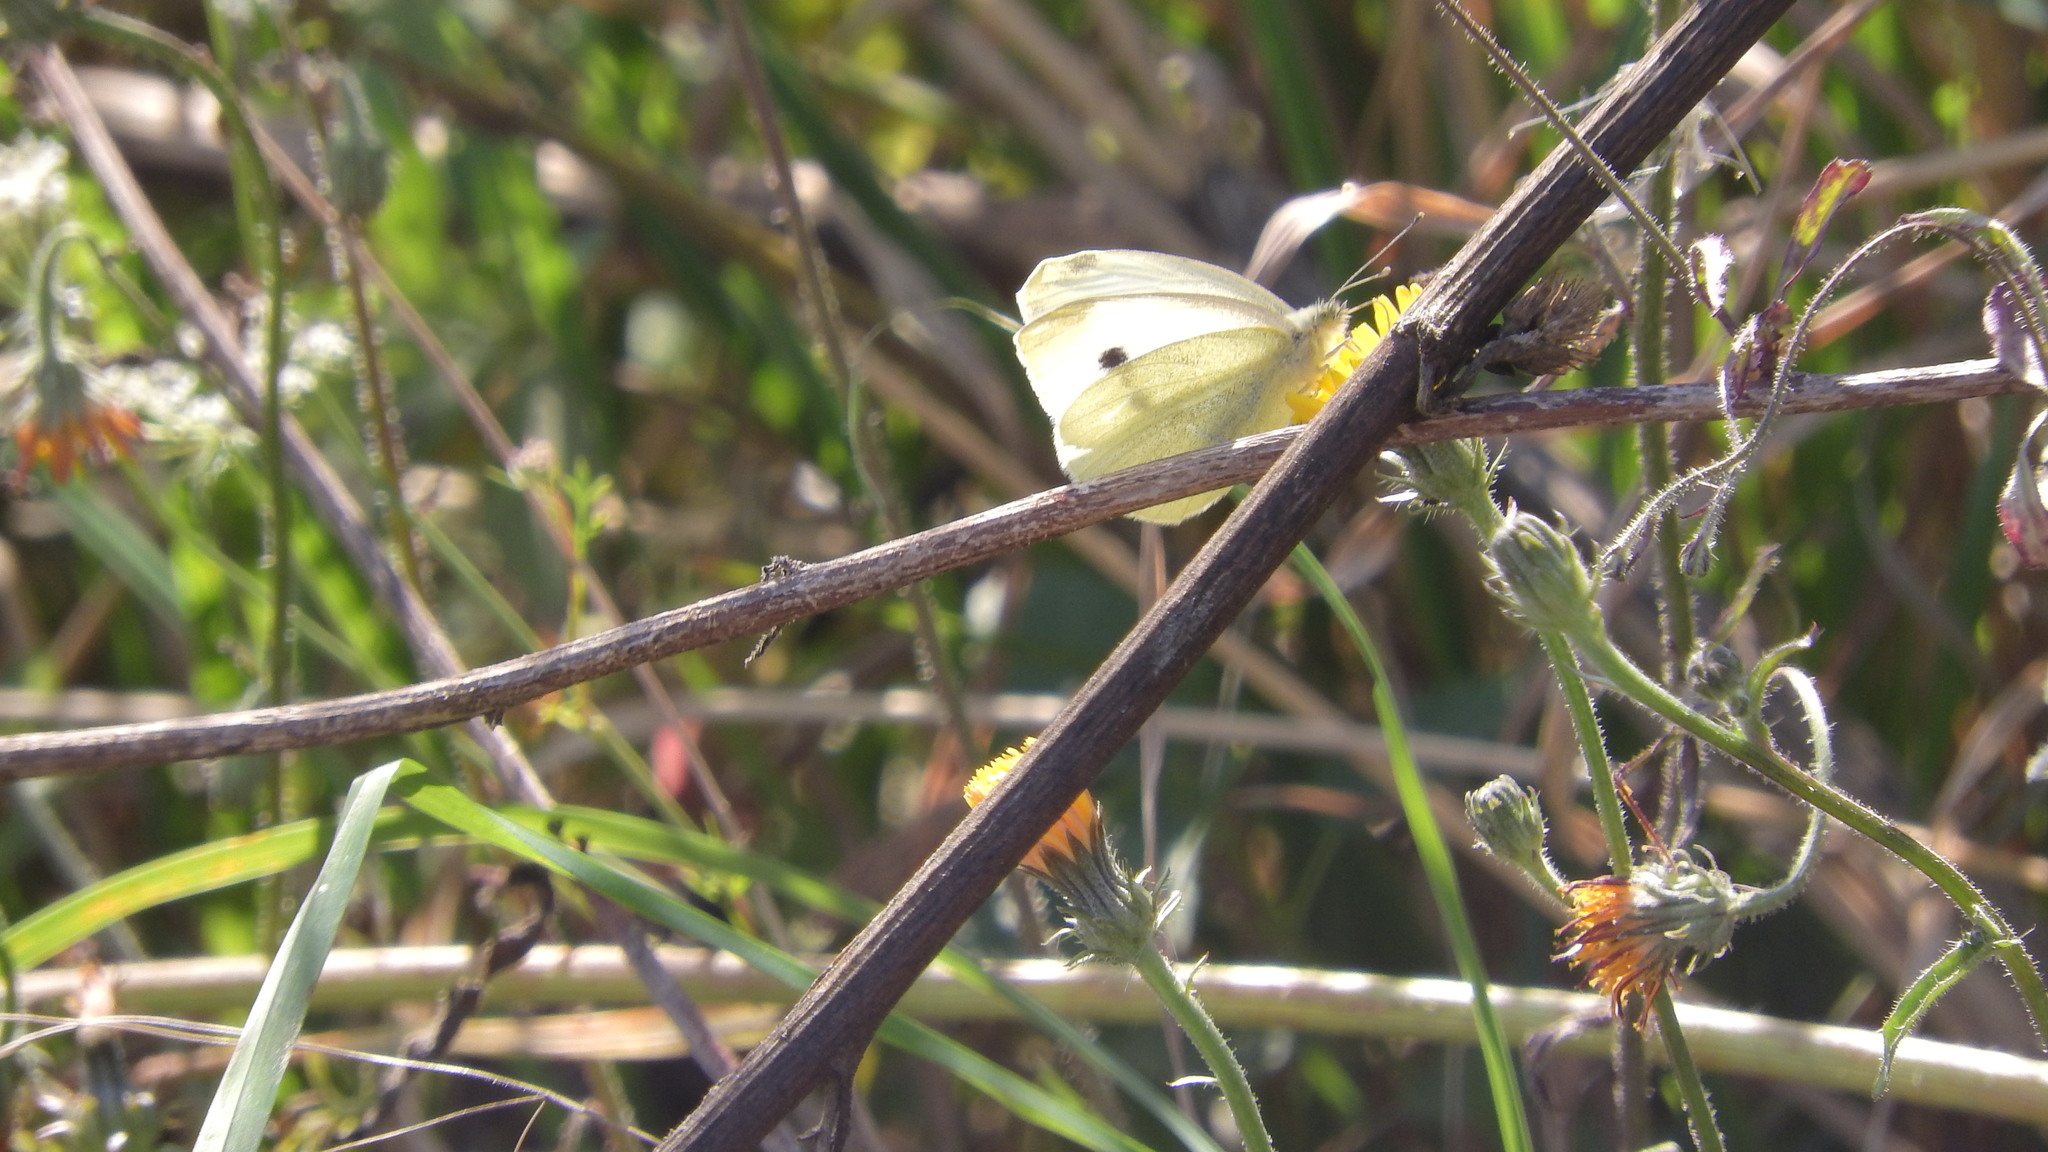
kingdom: Animalia
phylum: Arthropoda
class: Insecta
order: Lepidoptera
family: Pieridae
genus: Pieris
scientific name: Pieris rapae
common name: Small white
